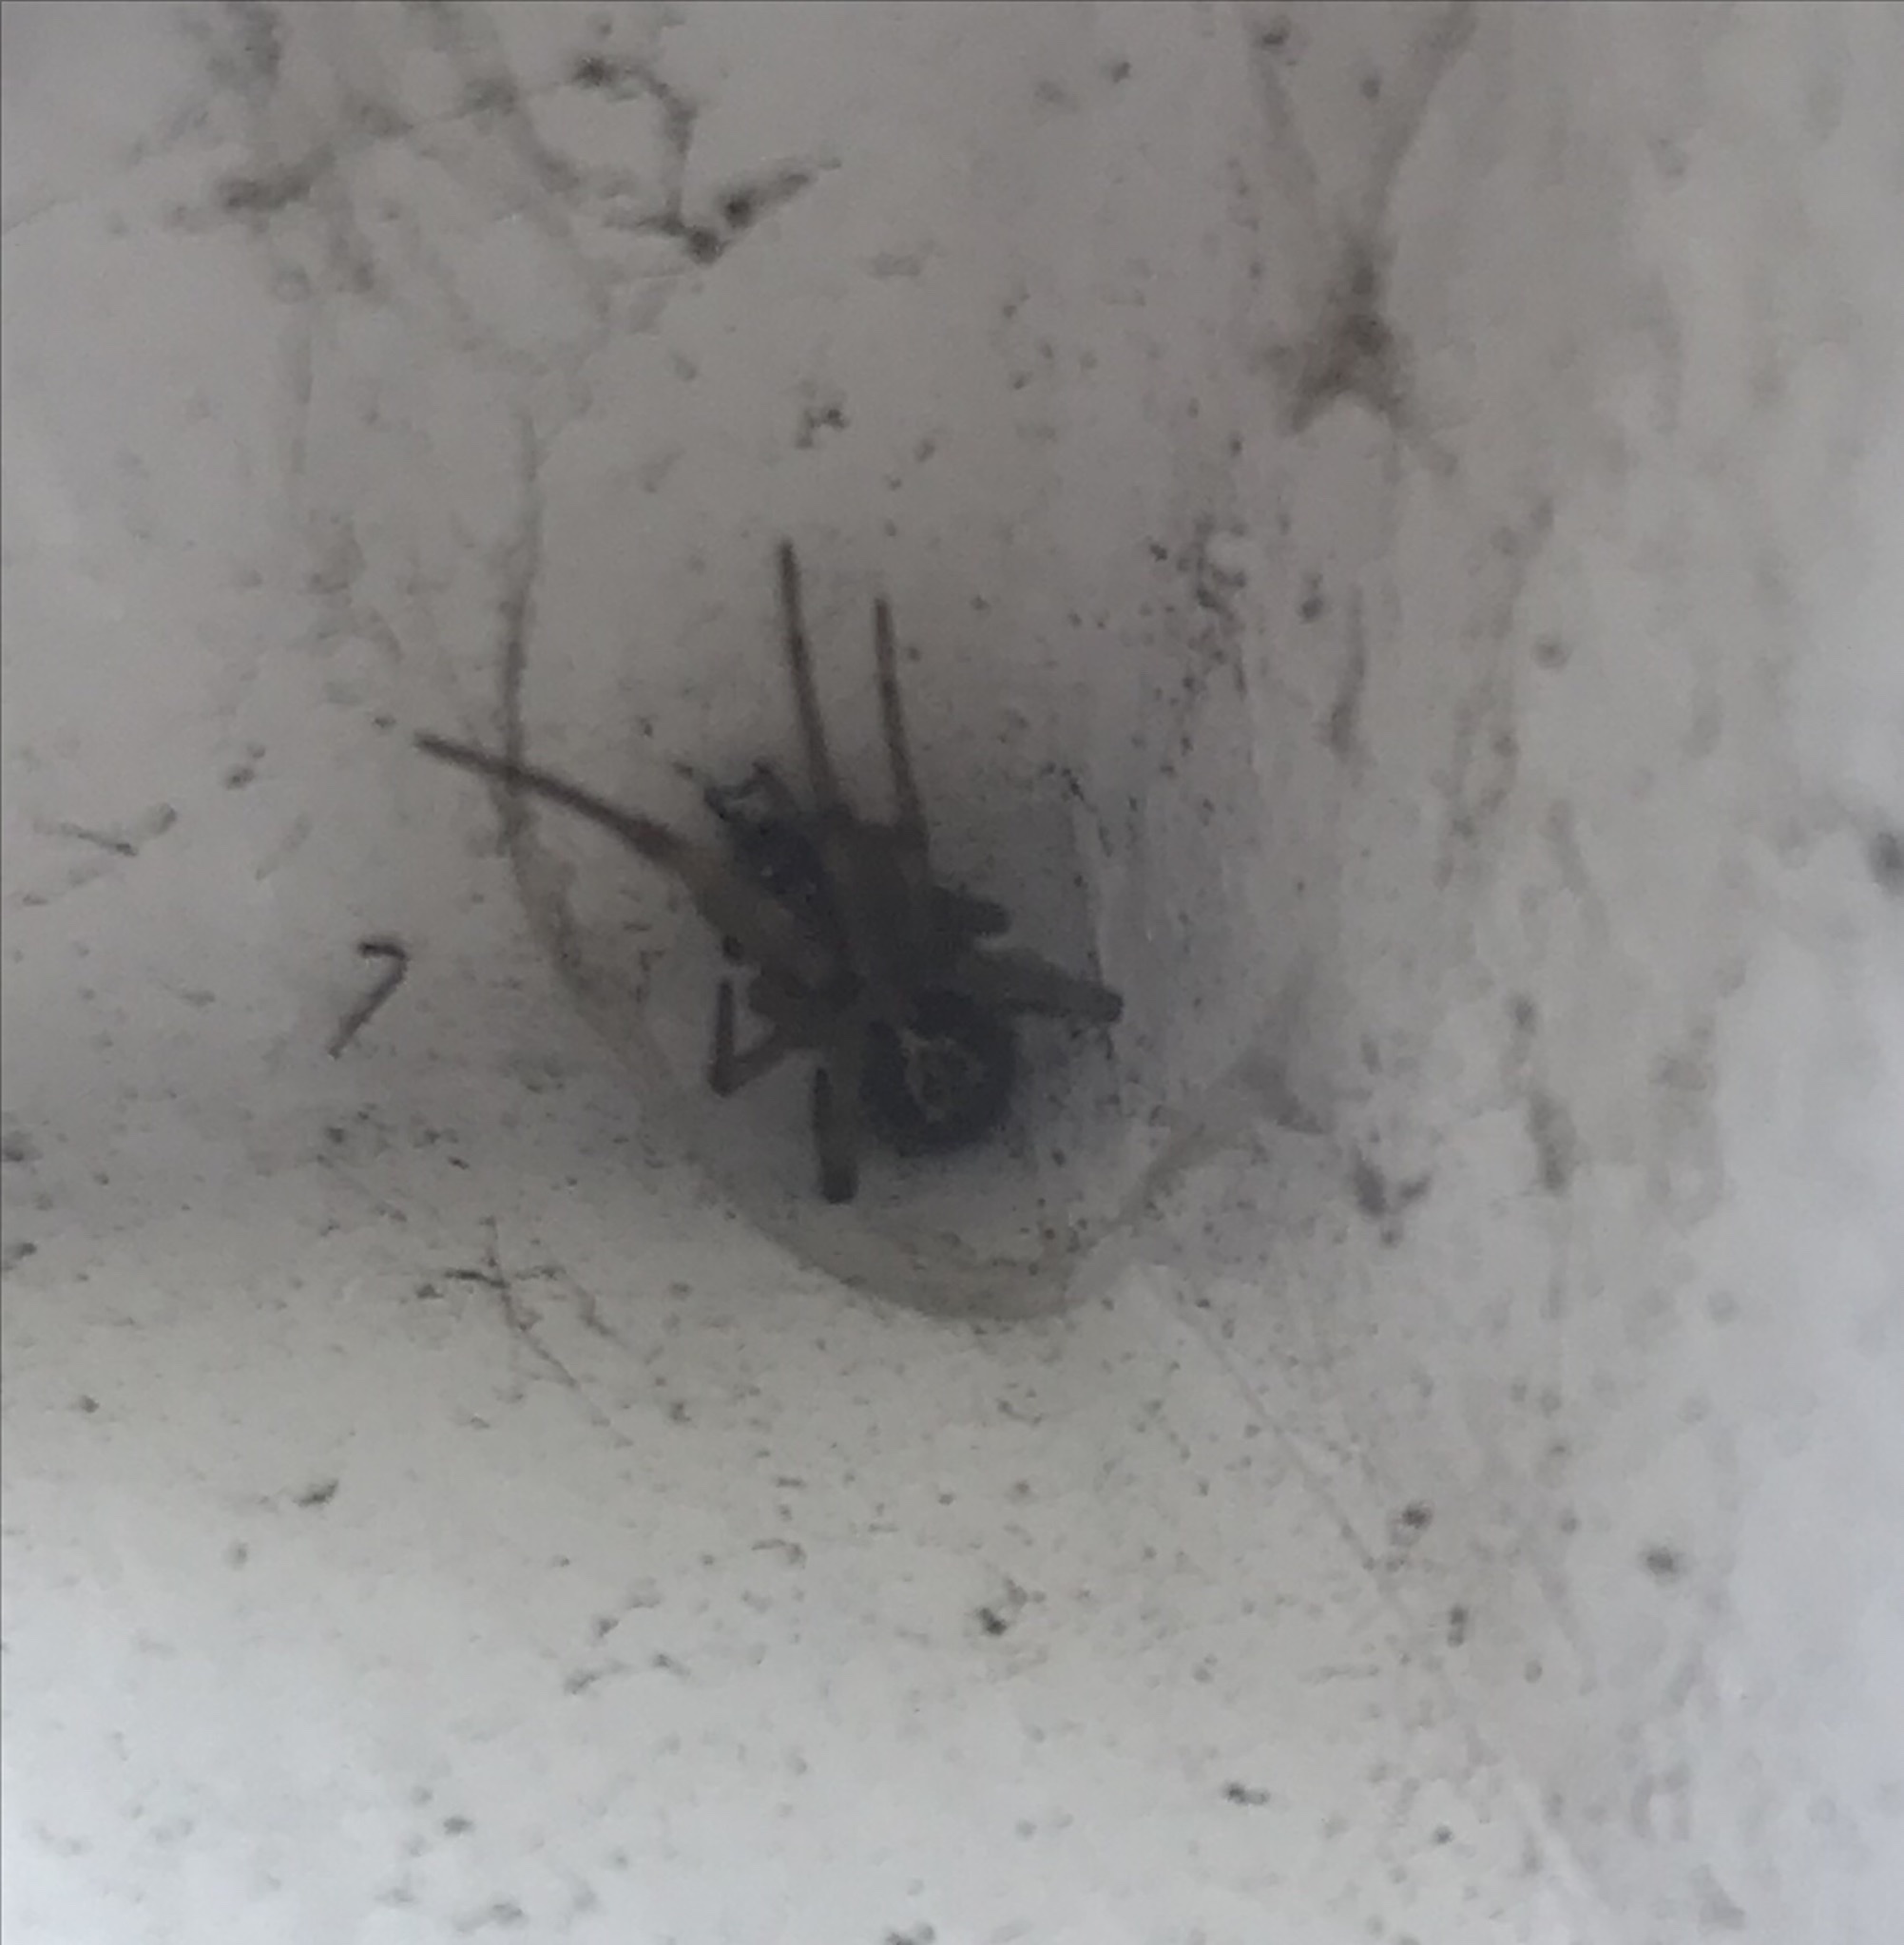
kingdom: Animalia
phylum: Arthropoda
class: Arachnida
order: Araneae
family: Theridiidae
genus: Steatoda
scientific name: Steatoda nobilis
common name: Cobweb weaver
